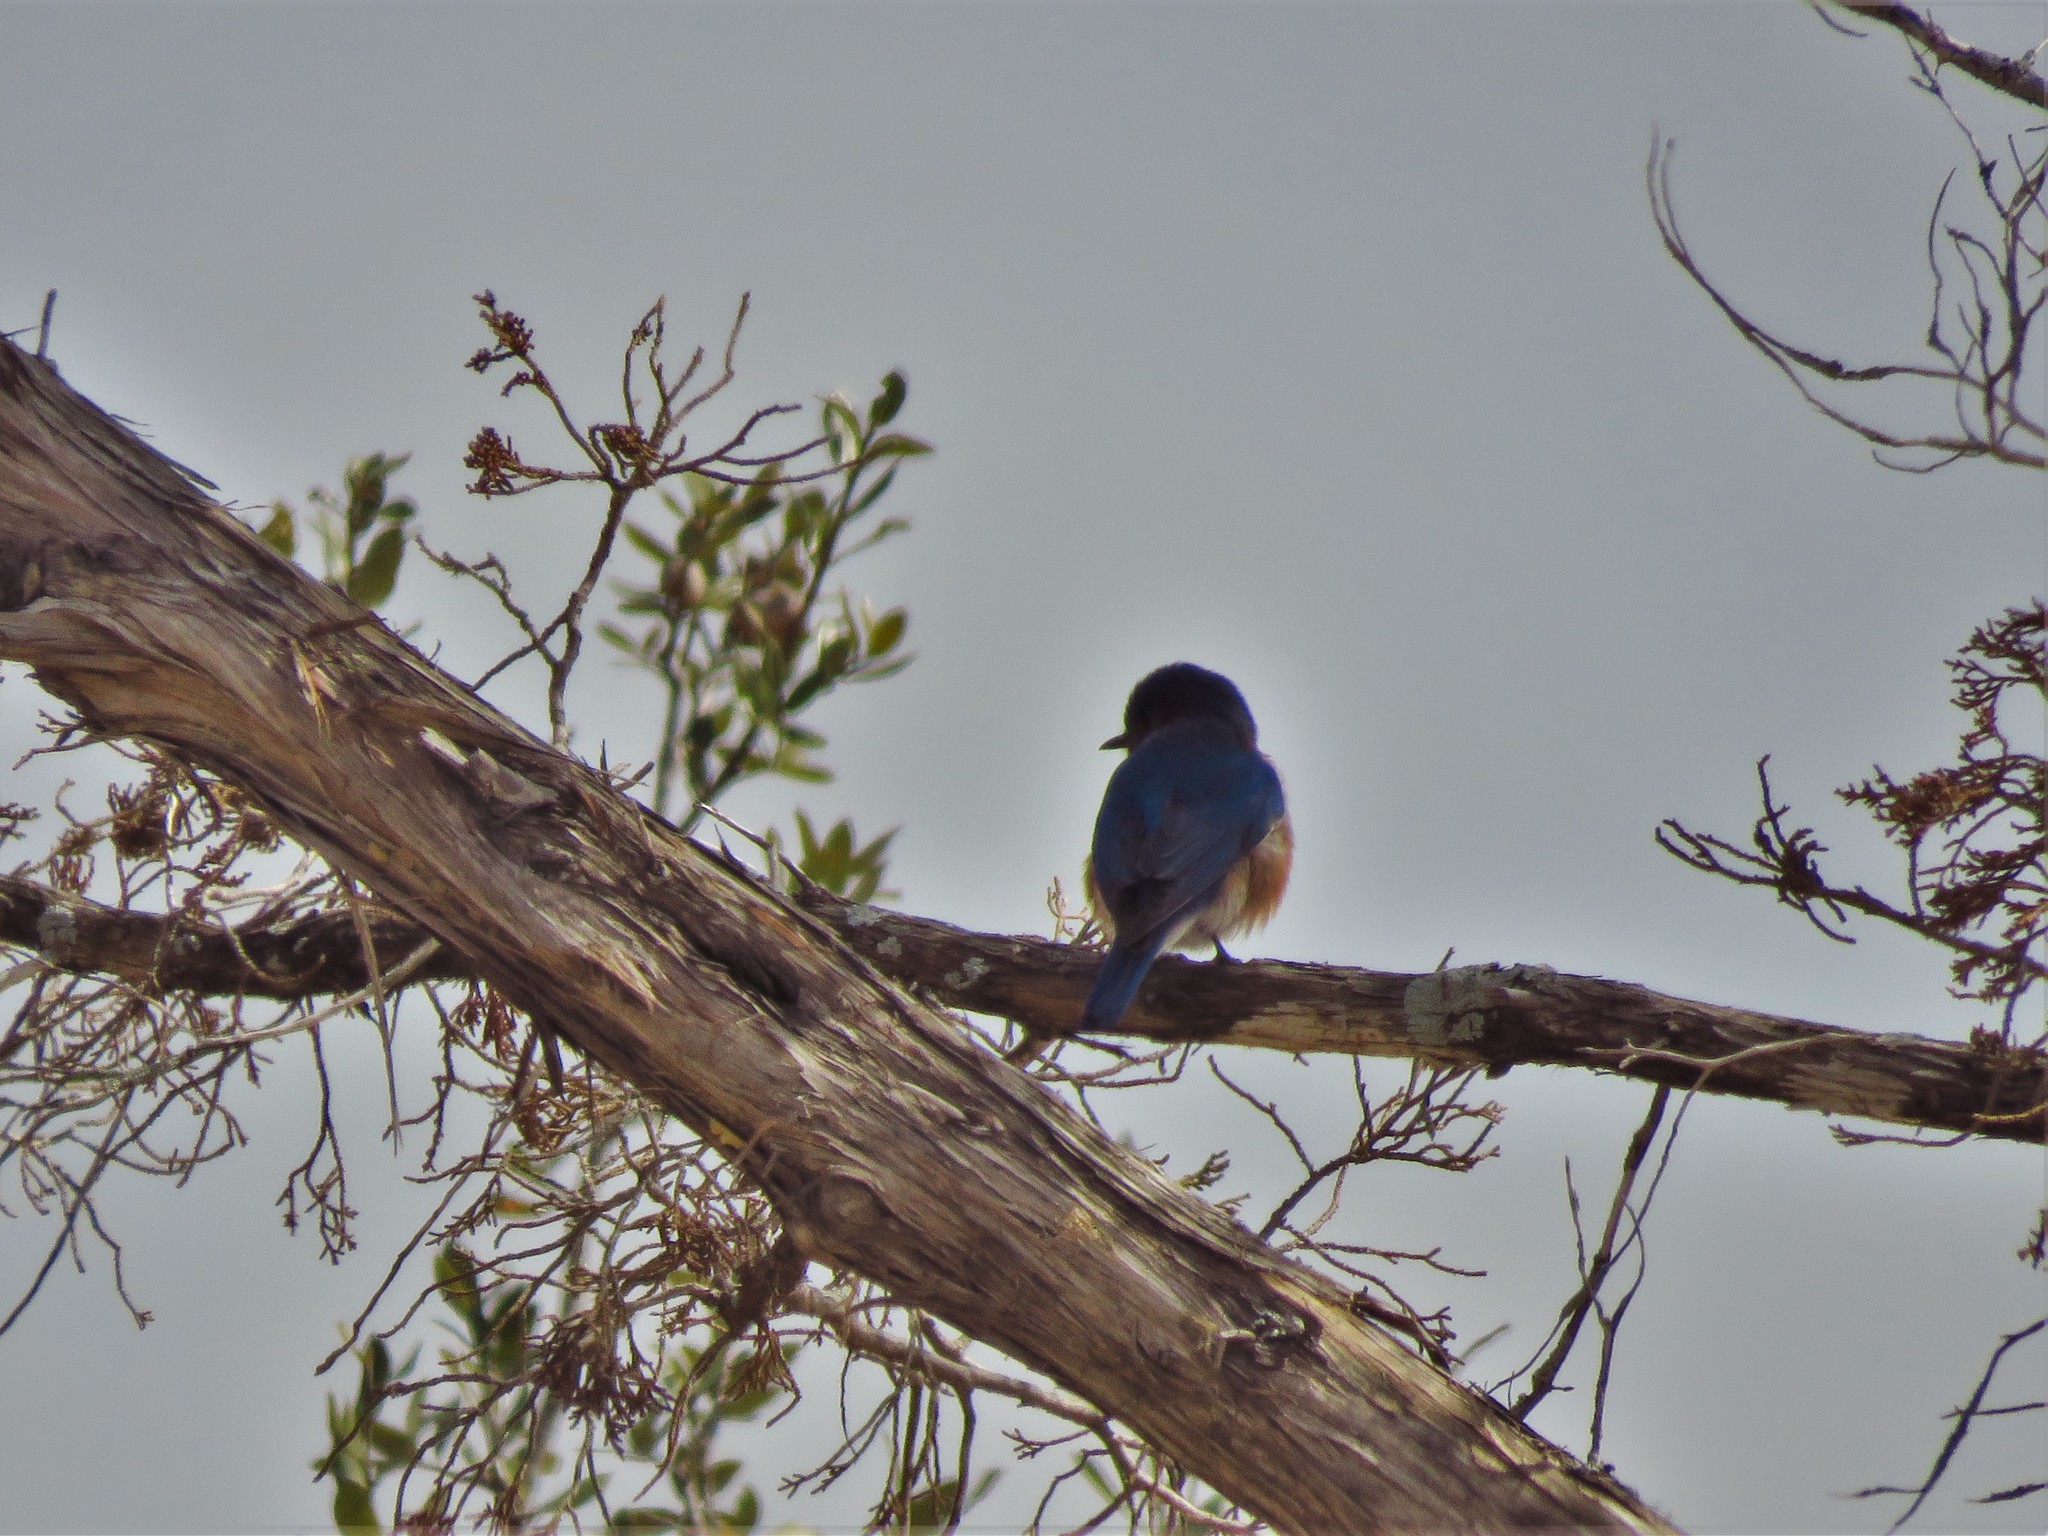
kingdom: Animalia
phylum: Chordata
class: Aves
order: Passeriformes
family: Turdidae
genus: Sialia
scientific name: Sialia sialis
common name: Eastern bluebird
